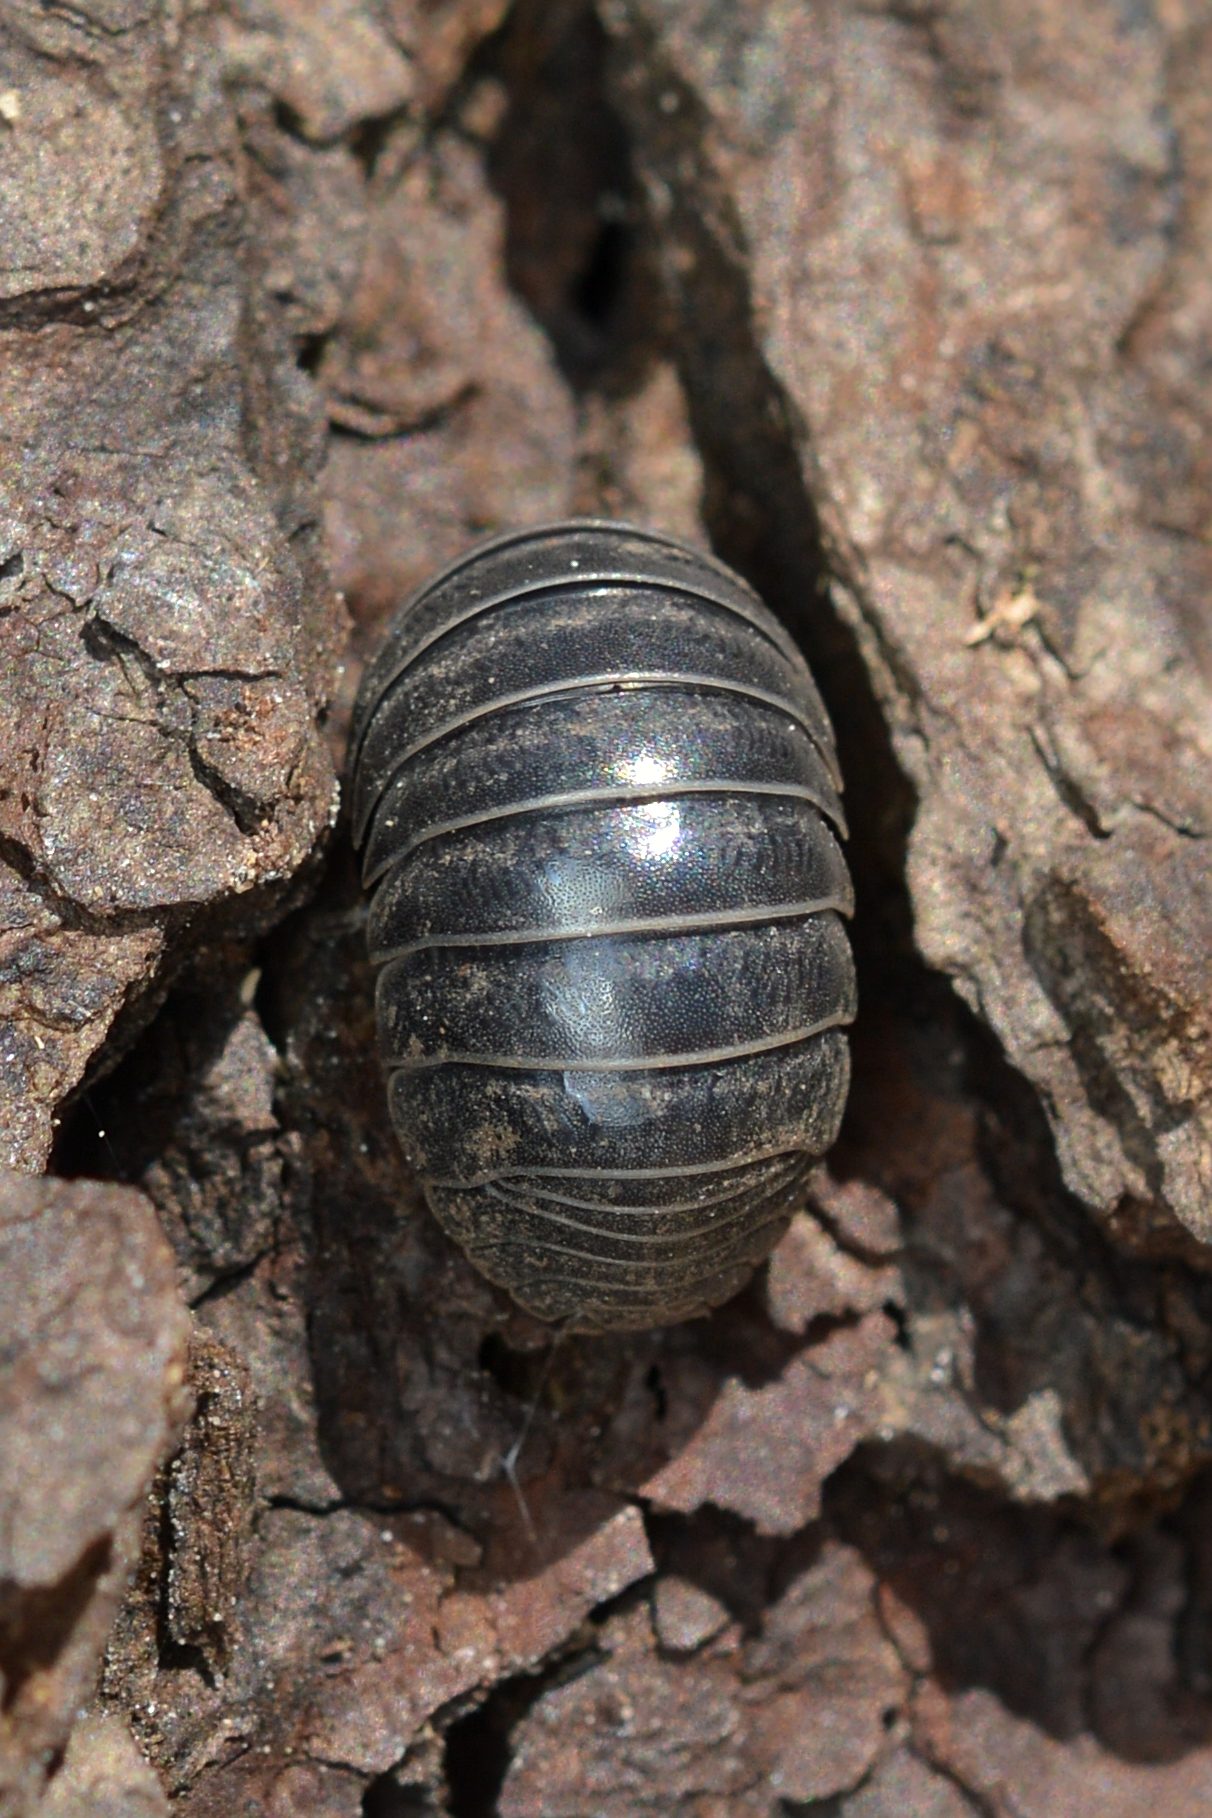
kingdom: Animalia
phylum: Arthropoda
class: Malacostraca
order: Isopoda
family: Armadillidiidae
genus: Armadillidium
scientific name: Armadillidium vulgare
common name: Common pill woodlouse
